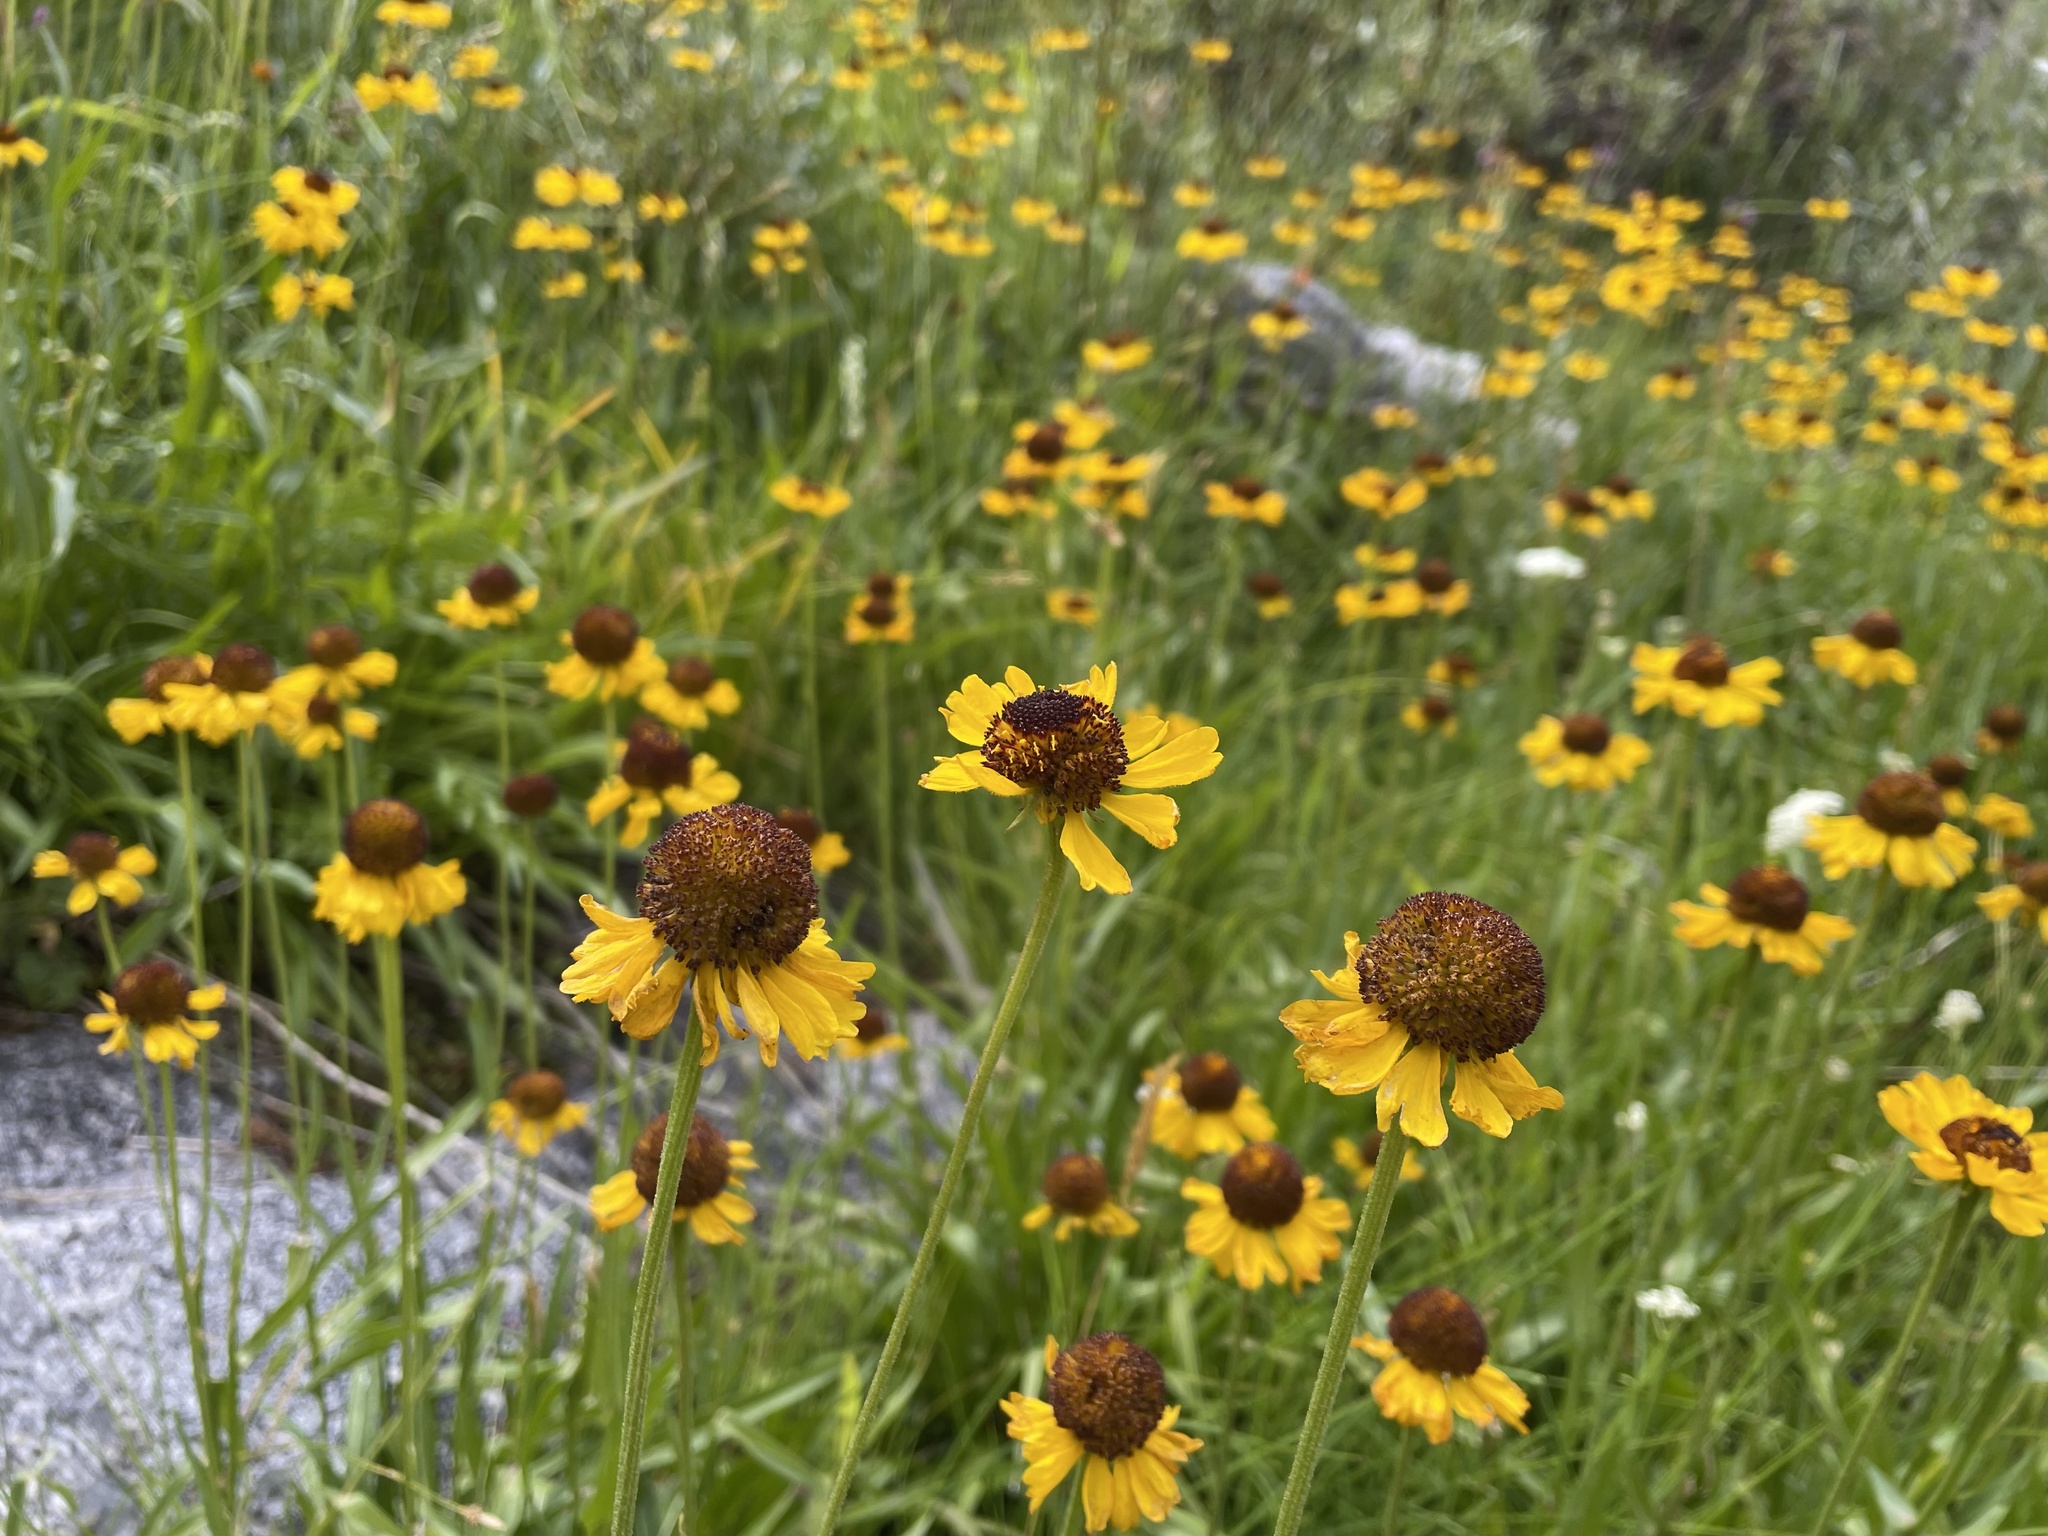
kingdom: Plantae
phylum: Tracheophyta
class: Magnoliopsida
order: Asterales
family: Asteraceae
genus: Helenium
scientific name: Helenium bigelovii
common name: Bigelow's sneezeweed
